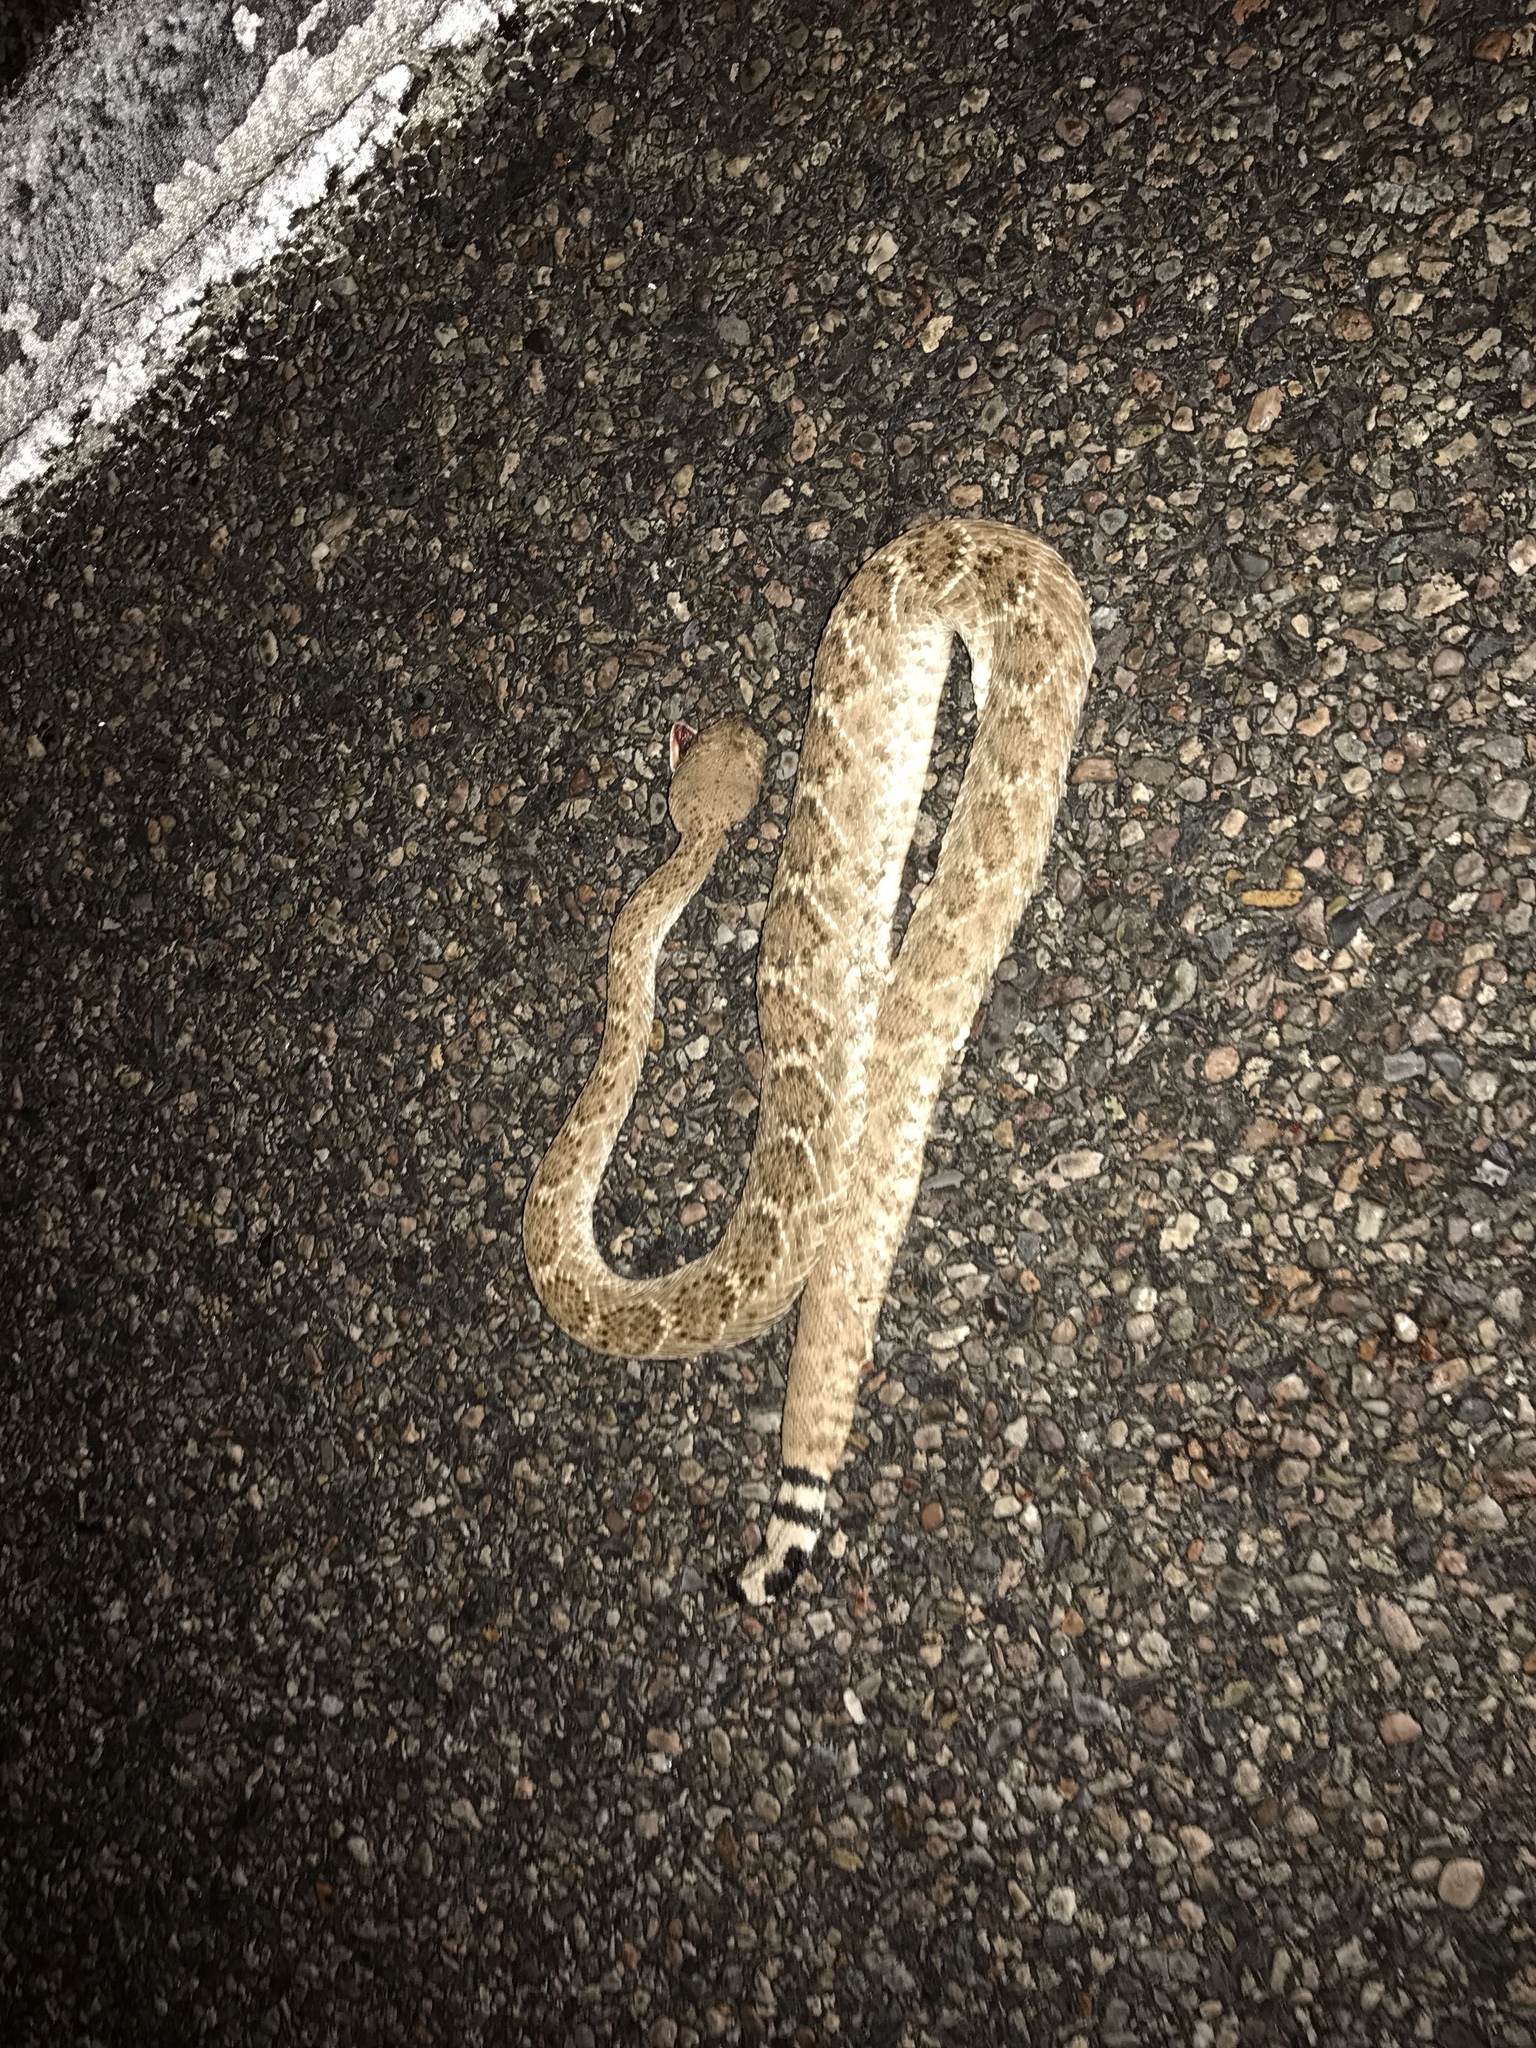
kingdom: Animalia
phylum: Chordata
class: Squamata
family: Viperidae
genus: Crotalus
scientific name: Crotalus atrox
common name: Western diamond-backed rattlesnake
